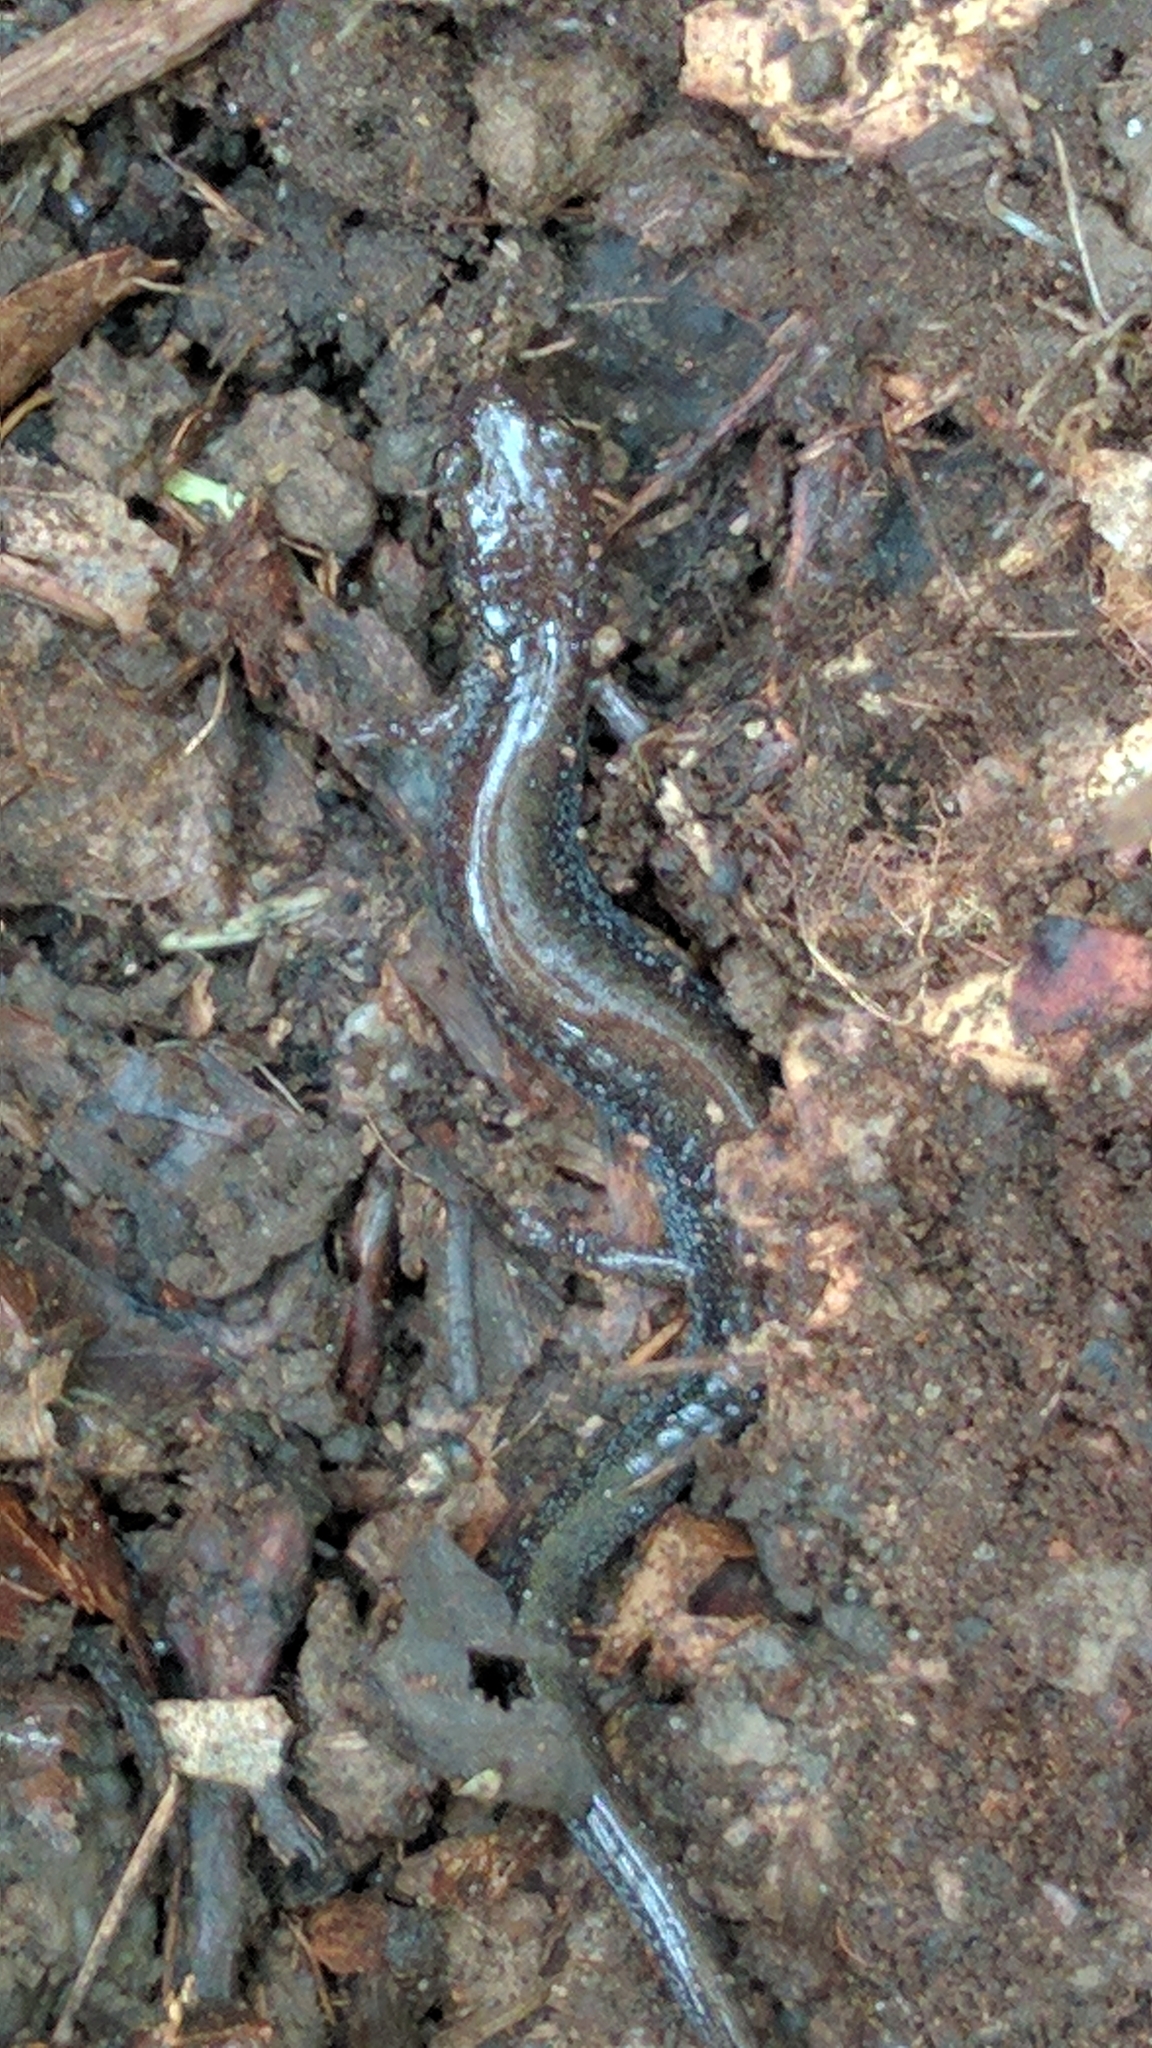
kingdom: Animalia
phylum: Chordata
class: Amphibia
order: Caudata
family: Plethodontidae
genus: Plethodon
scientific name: Plethodon cinereus
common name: Redback salamander
